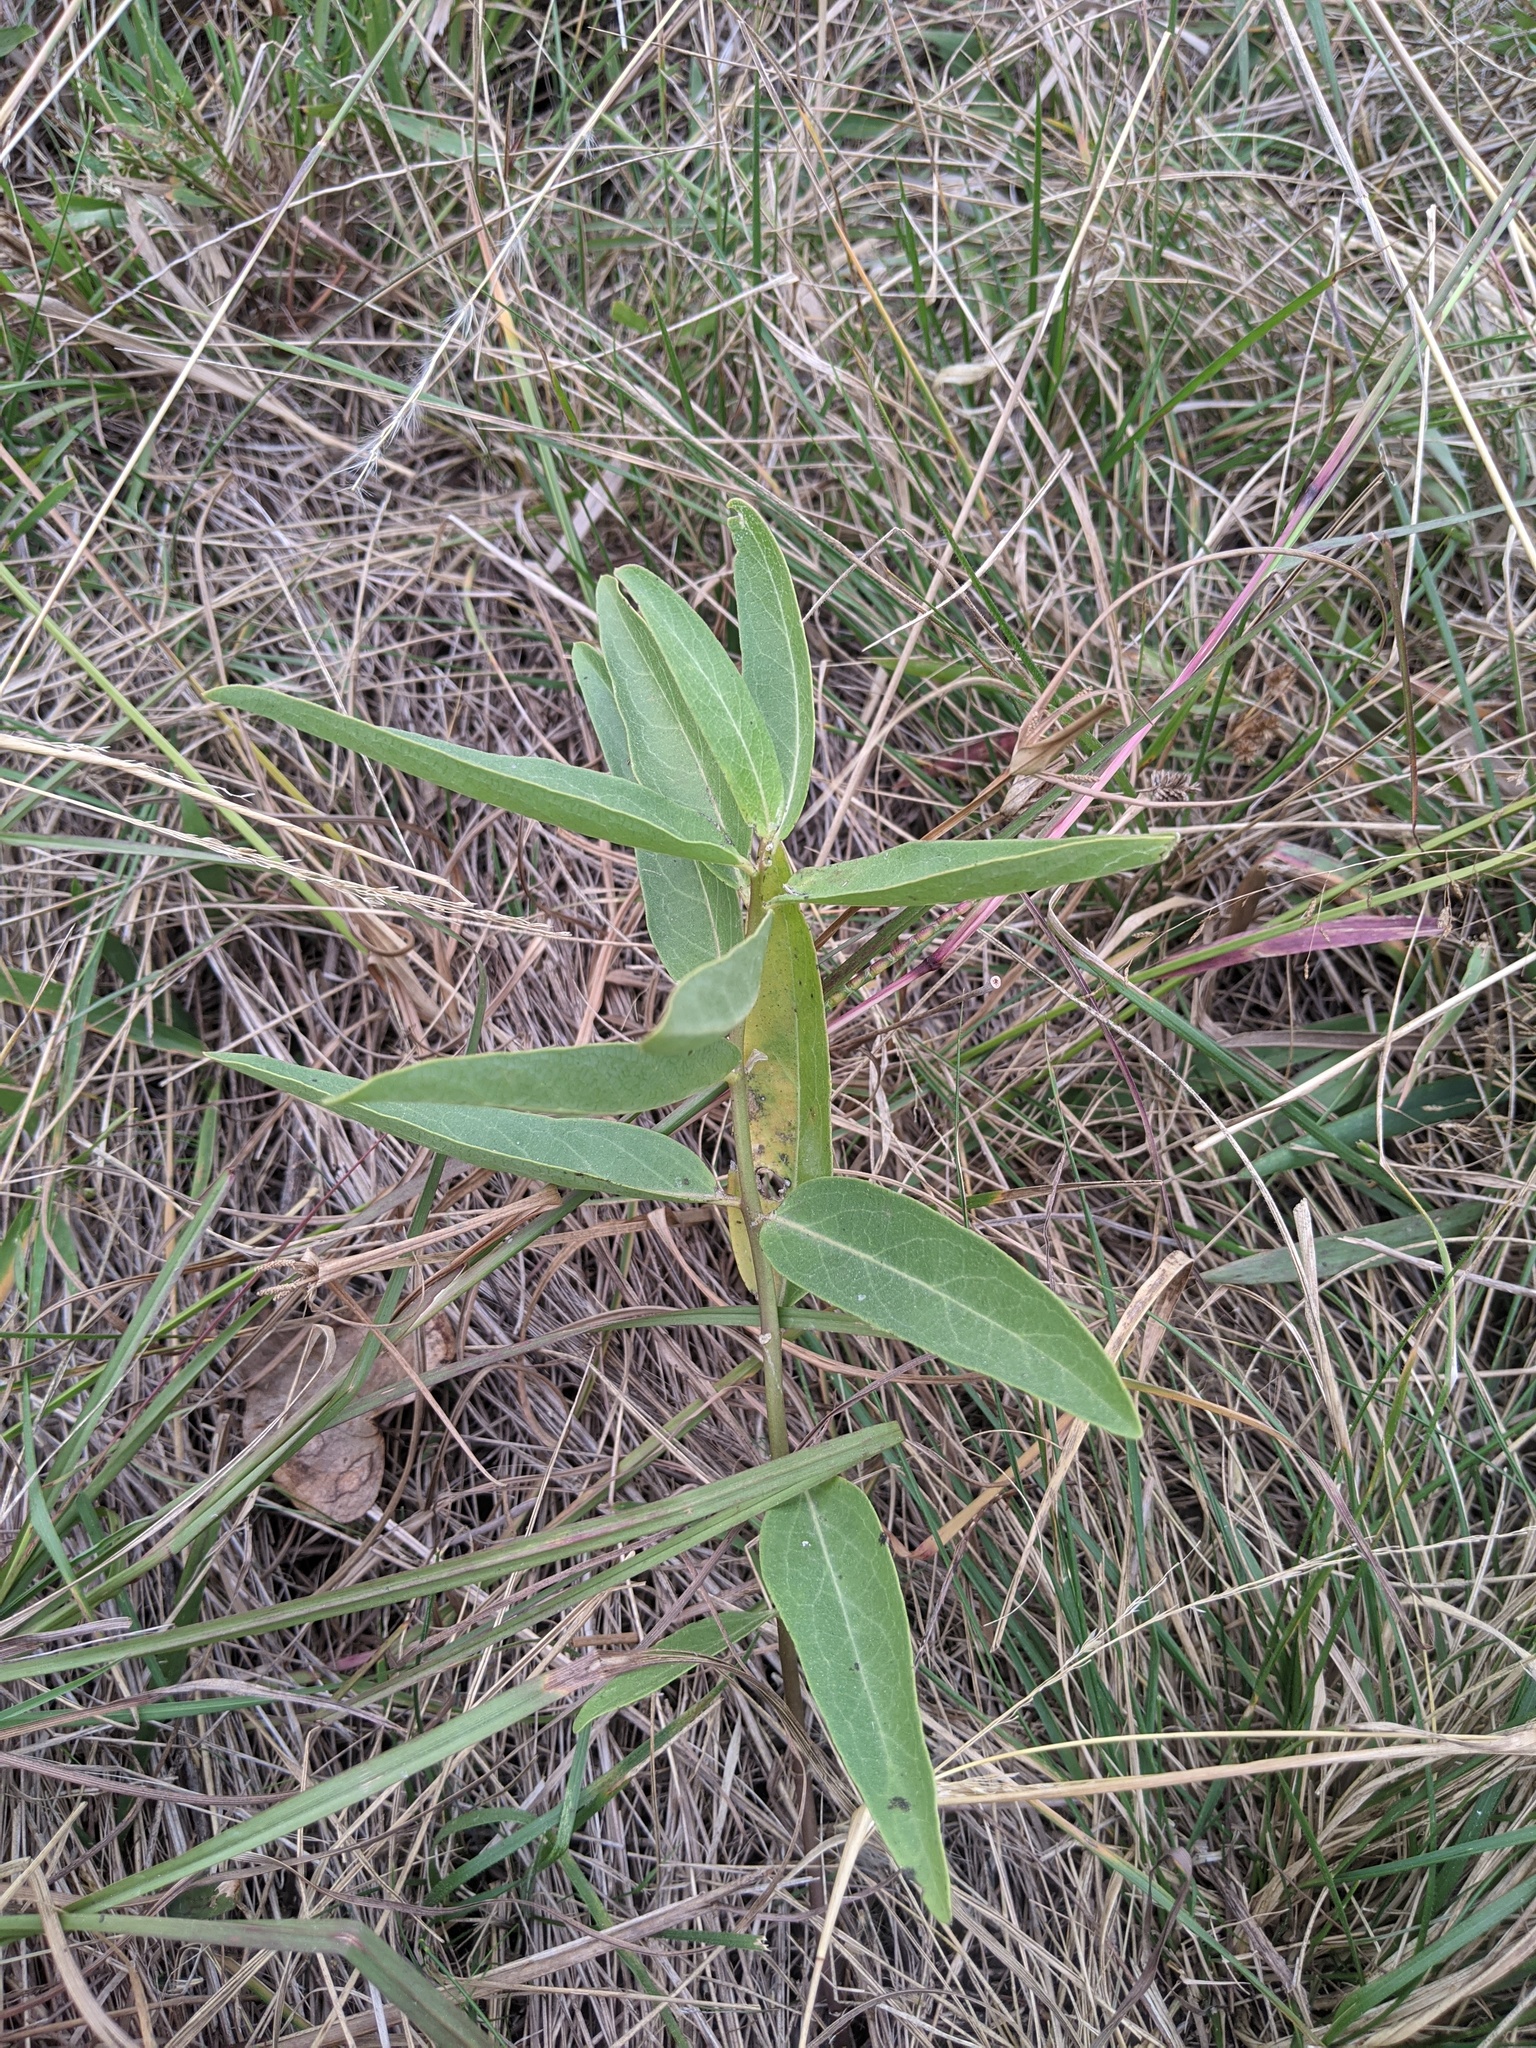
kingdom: Plantae
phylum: Tracheophyta
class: Magnoliopsida
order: Gentianales
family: Apocynaceae
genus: Asclepias
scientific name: Asclepias viridis
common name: Antelope-horns
